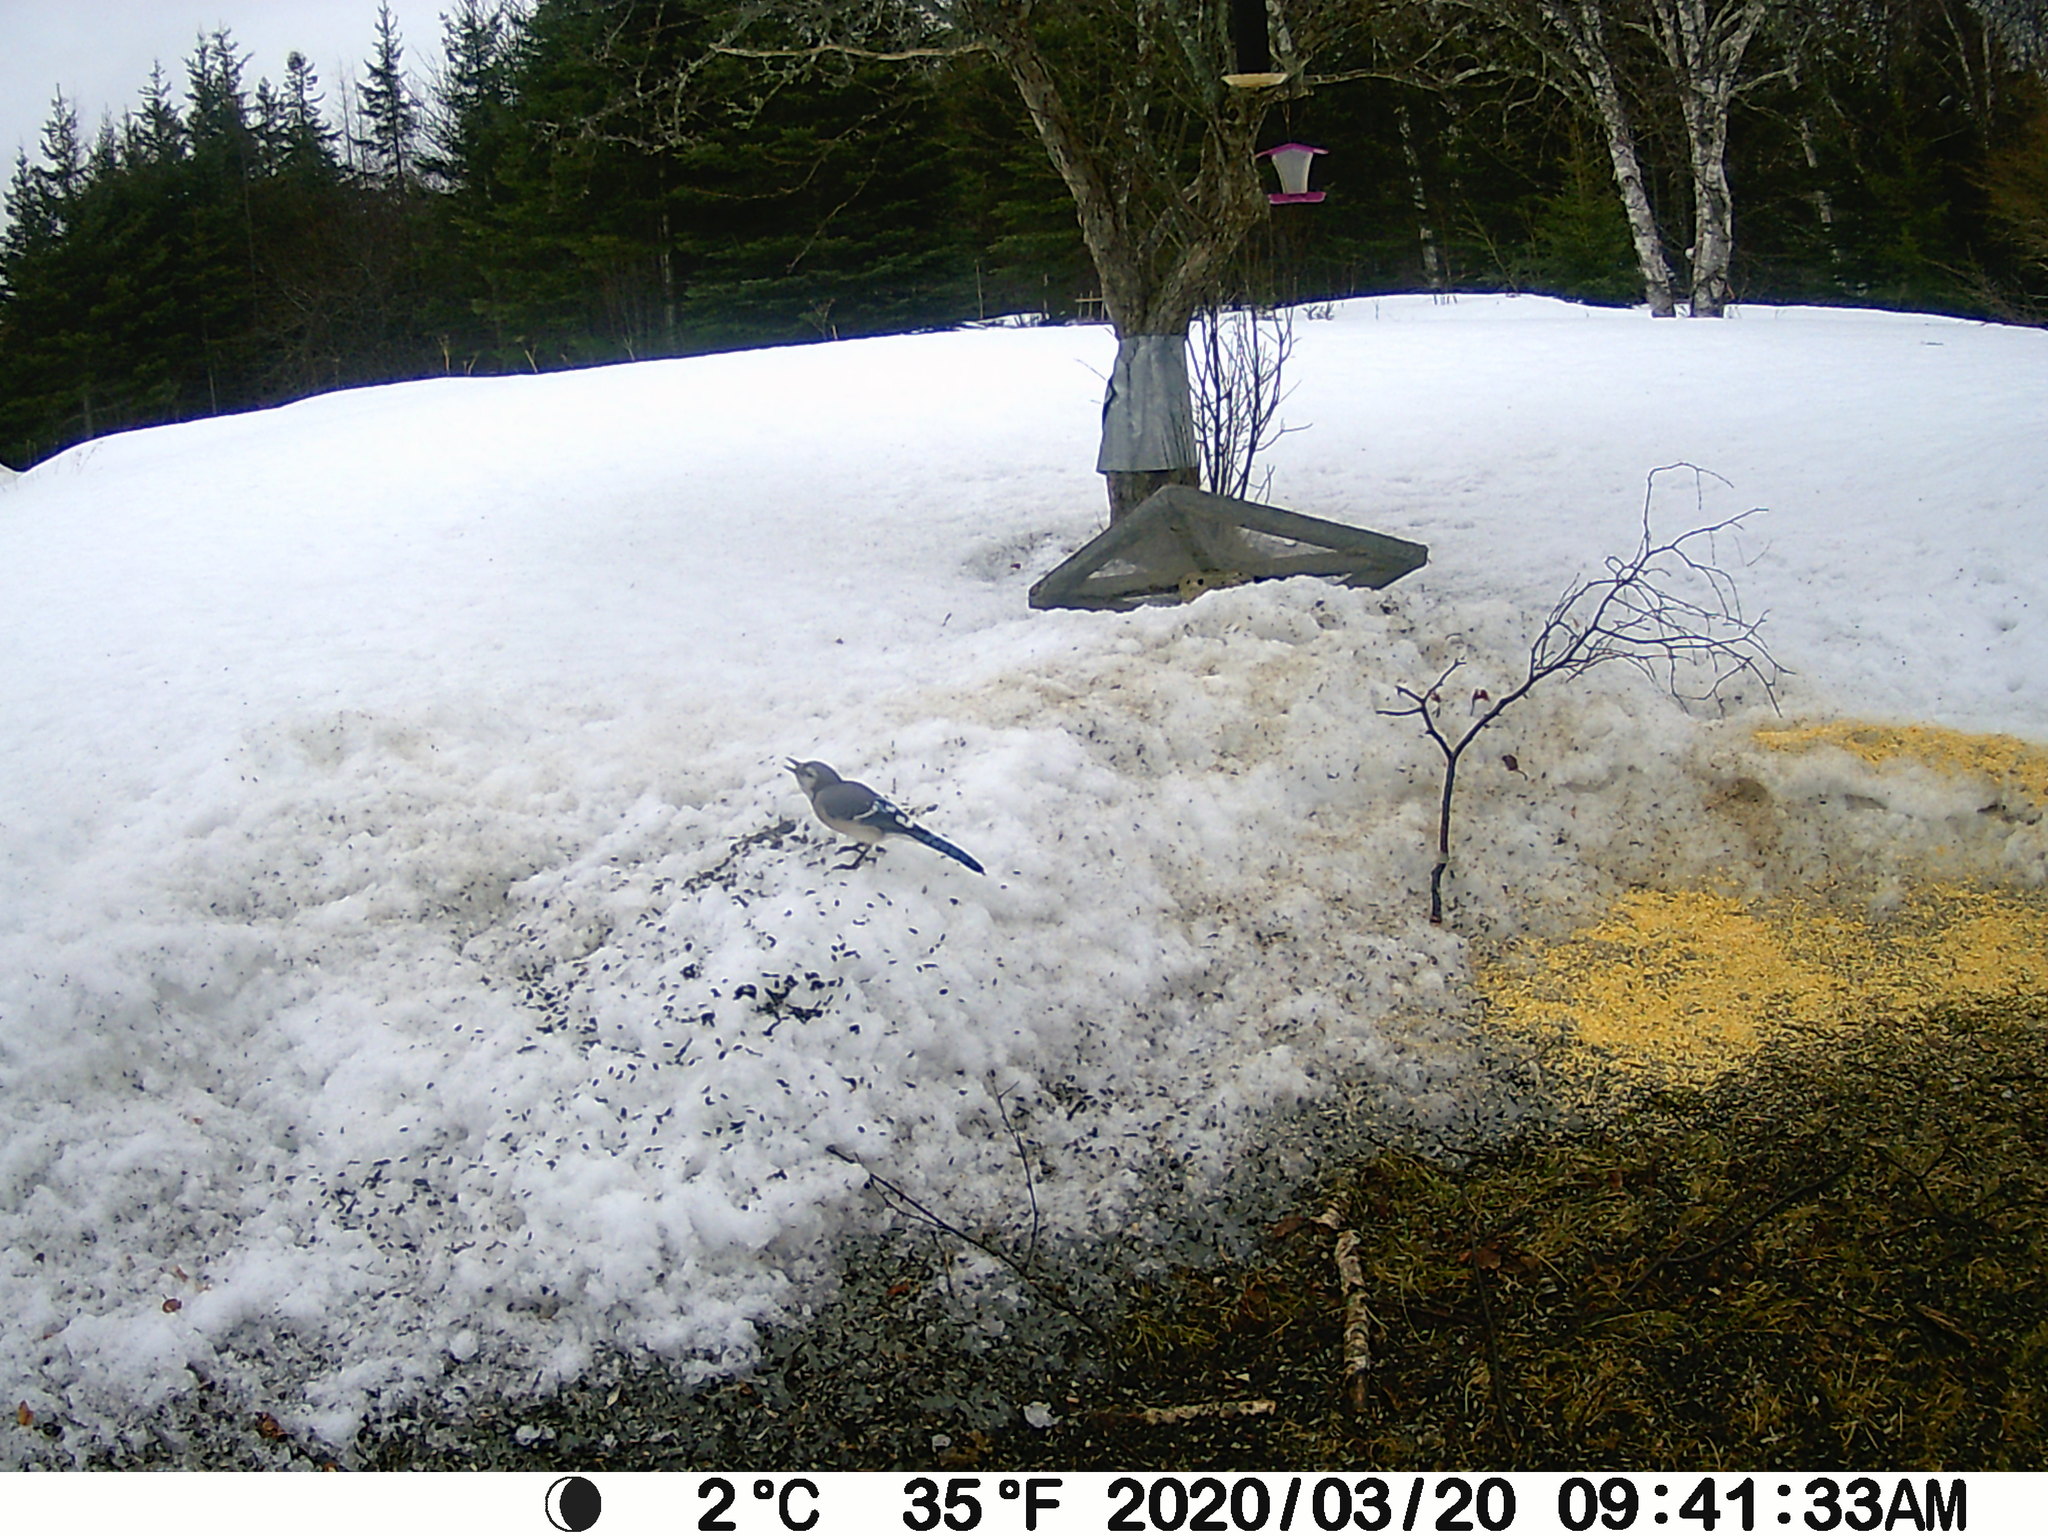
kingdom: Animalia
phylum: Chordata
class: Aves
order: Passeriformes
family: Corvidae
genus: Cyanocitta
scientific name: Cyanocitta cristata
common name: Blue jay
